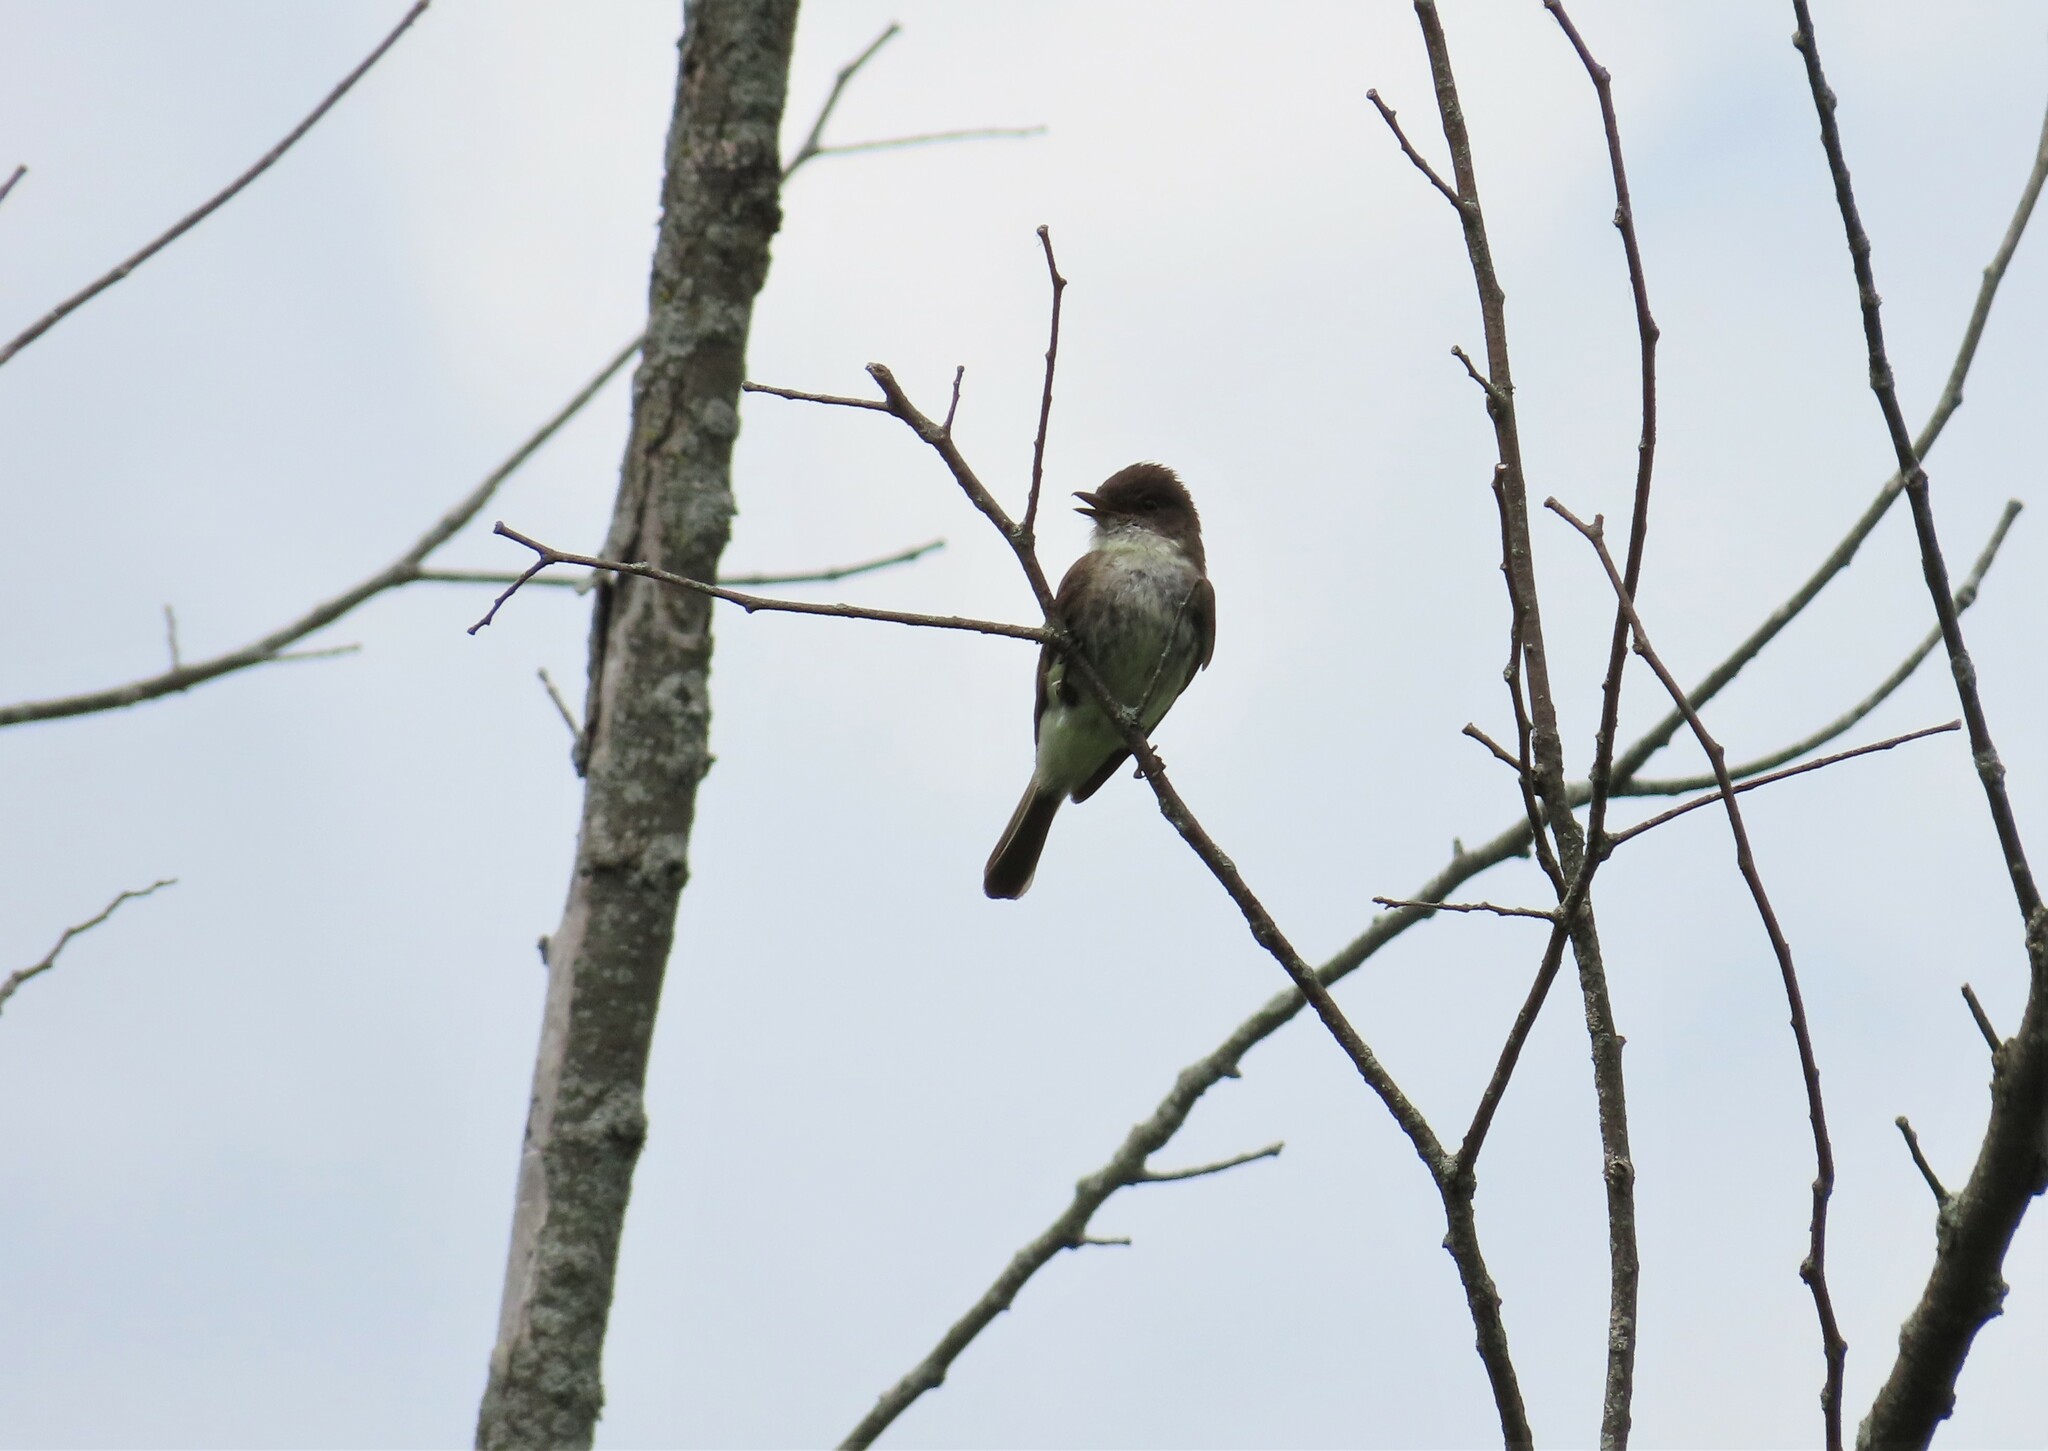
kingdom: Animalia
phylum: Chordata
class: Aves
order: Passeriformes
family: Tyrannidae
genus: Sayornis
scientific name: Sayornis phoebe
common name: Eastern phoebe
